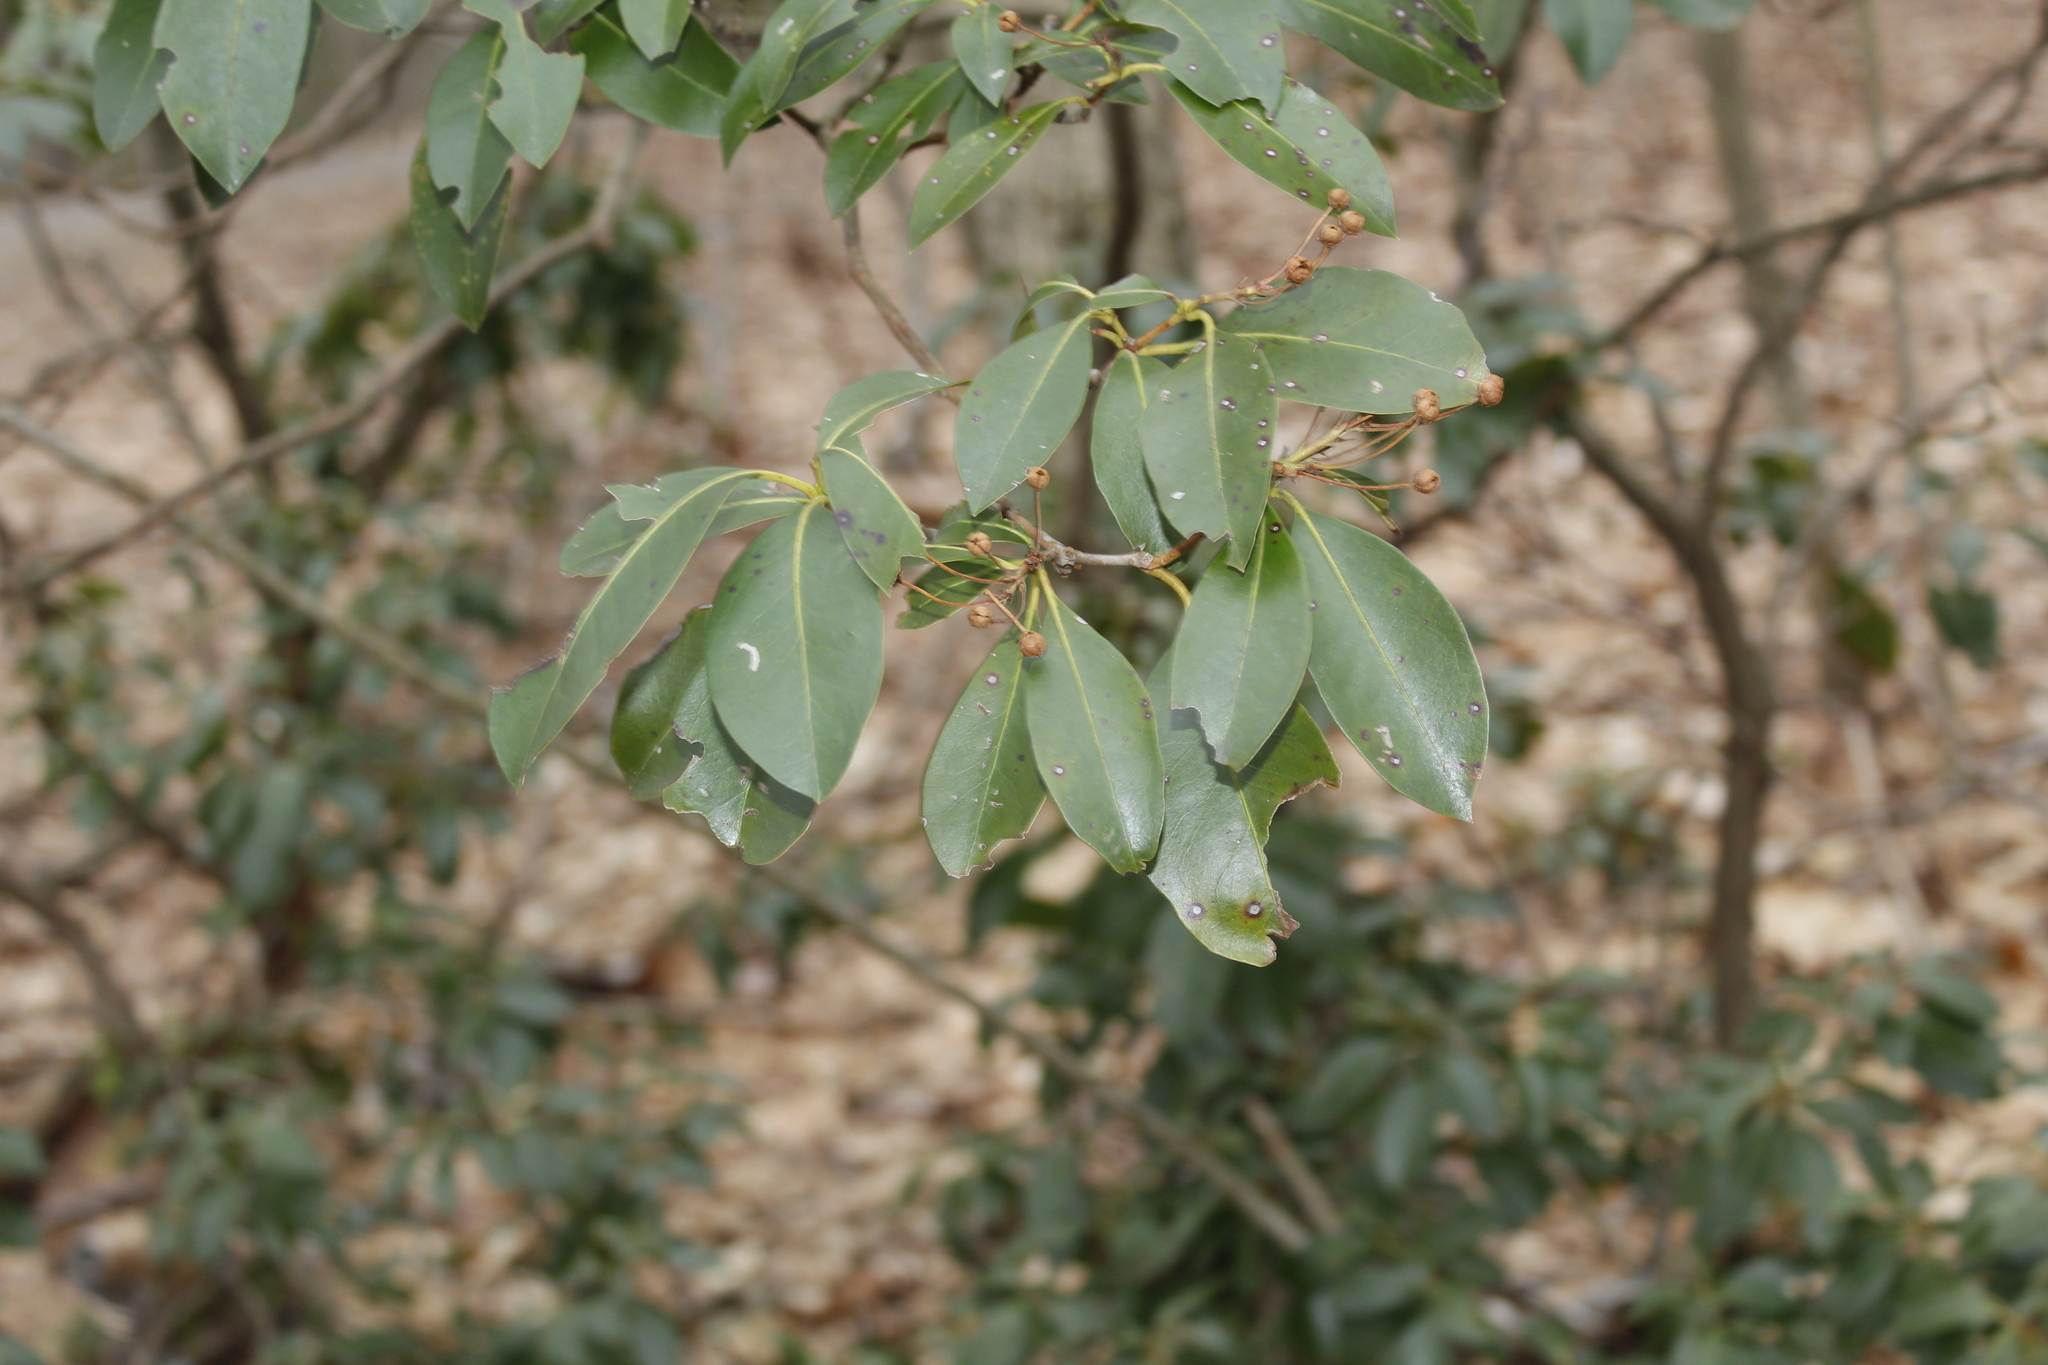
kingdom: Plantae
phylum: Tracheophyta
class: Magnoliopsida
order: Ericales
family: Ericaceae
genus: Kalmia
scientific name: Kalmia latifolia
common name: Mountain-laurel
